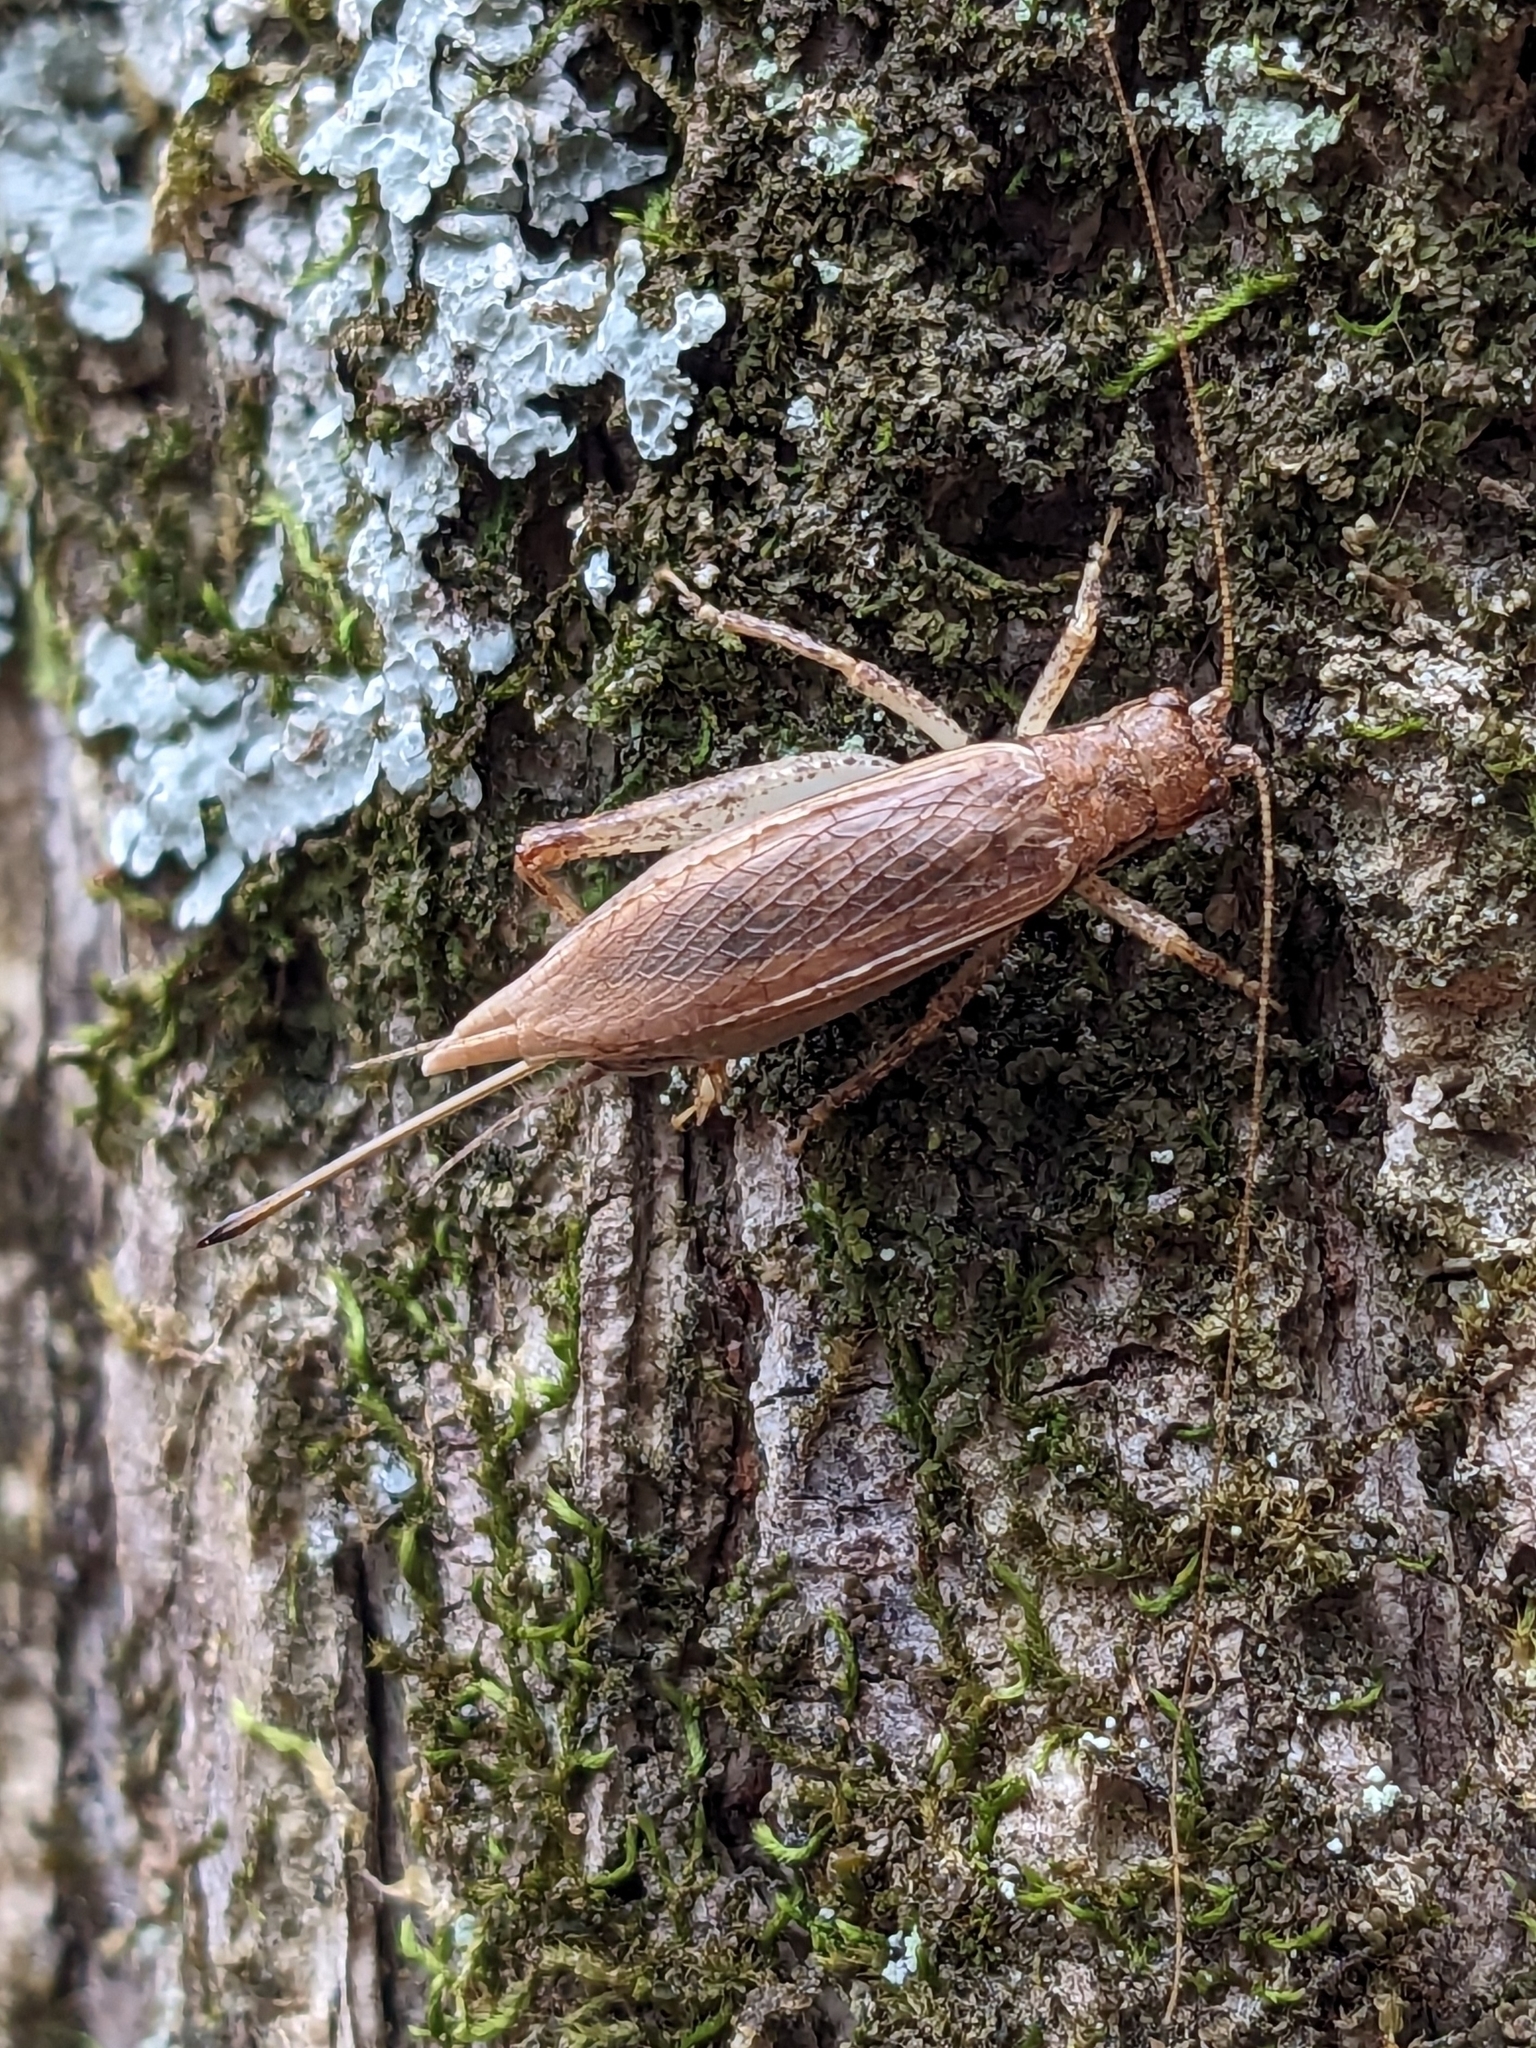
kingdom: Animalia
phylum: Arthropoda
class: Insecta
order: Orthoptera
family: Gryllidae
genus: Hapithus
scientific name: Hapithus saltator
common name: Jumping bush cricket
